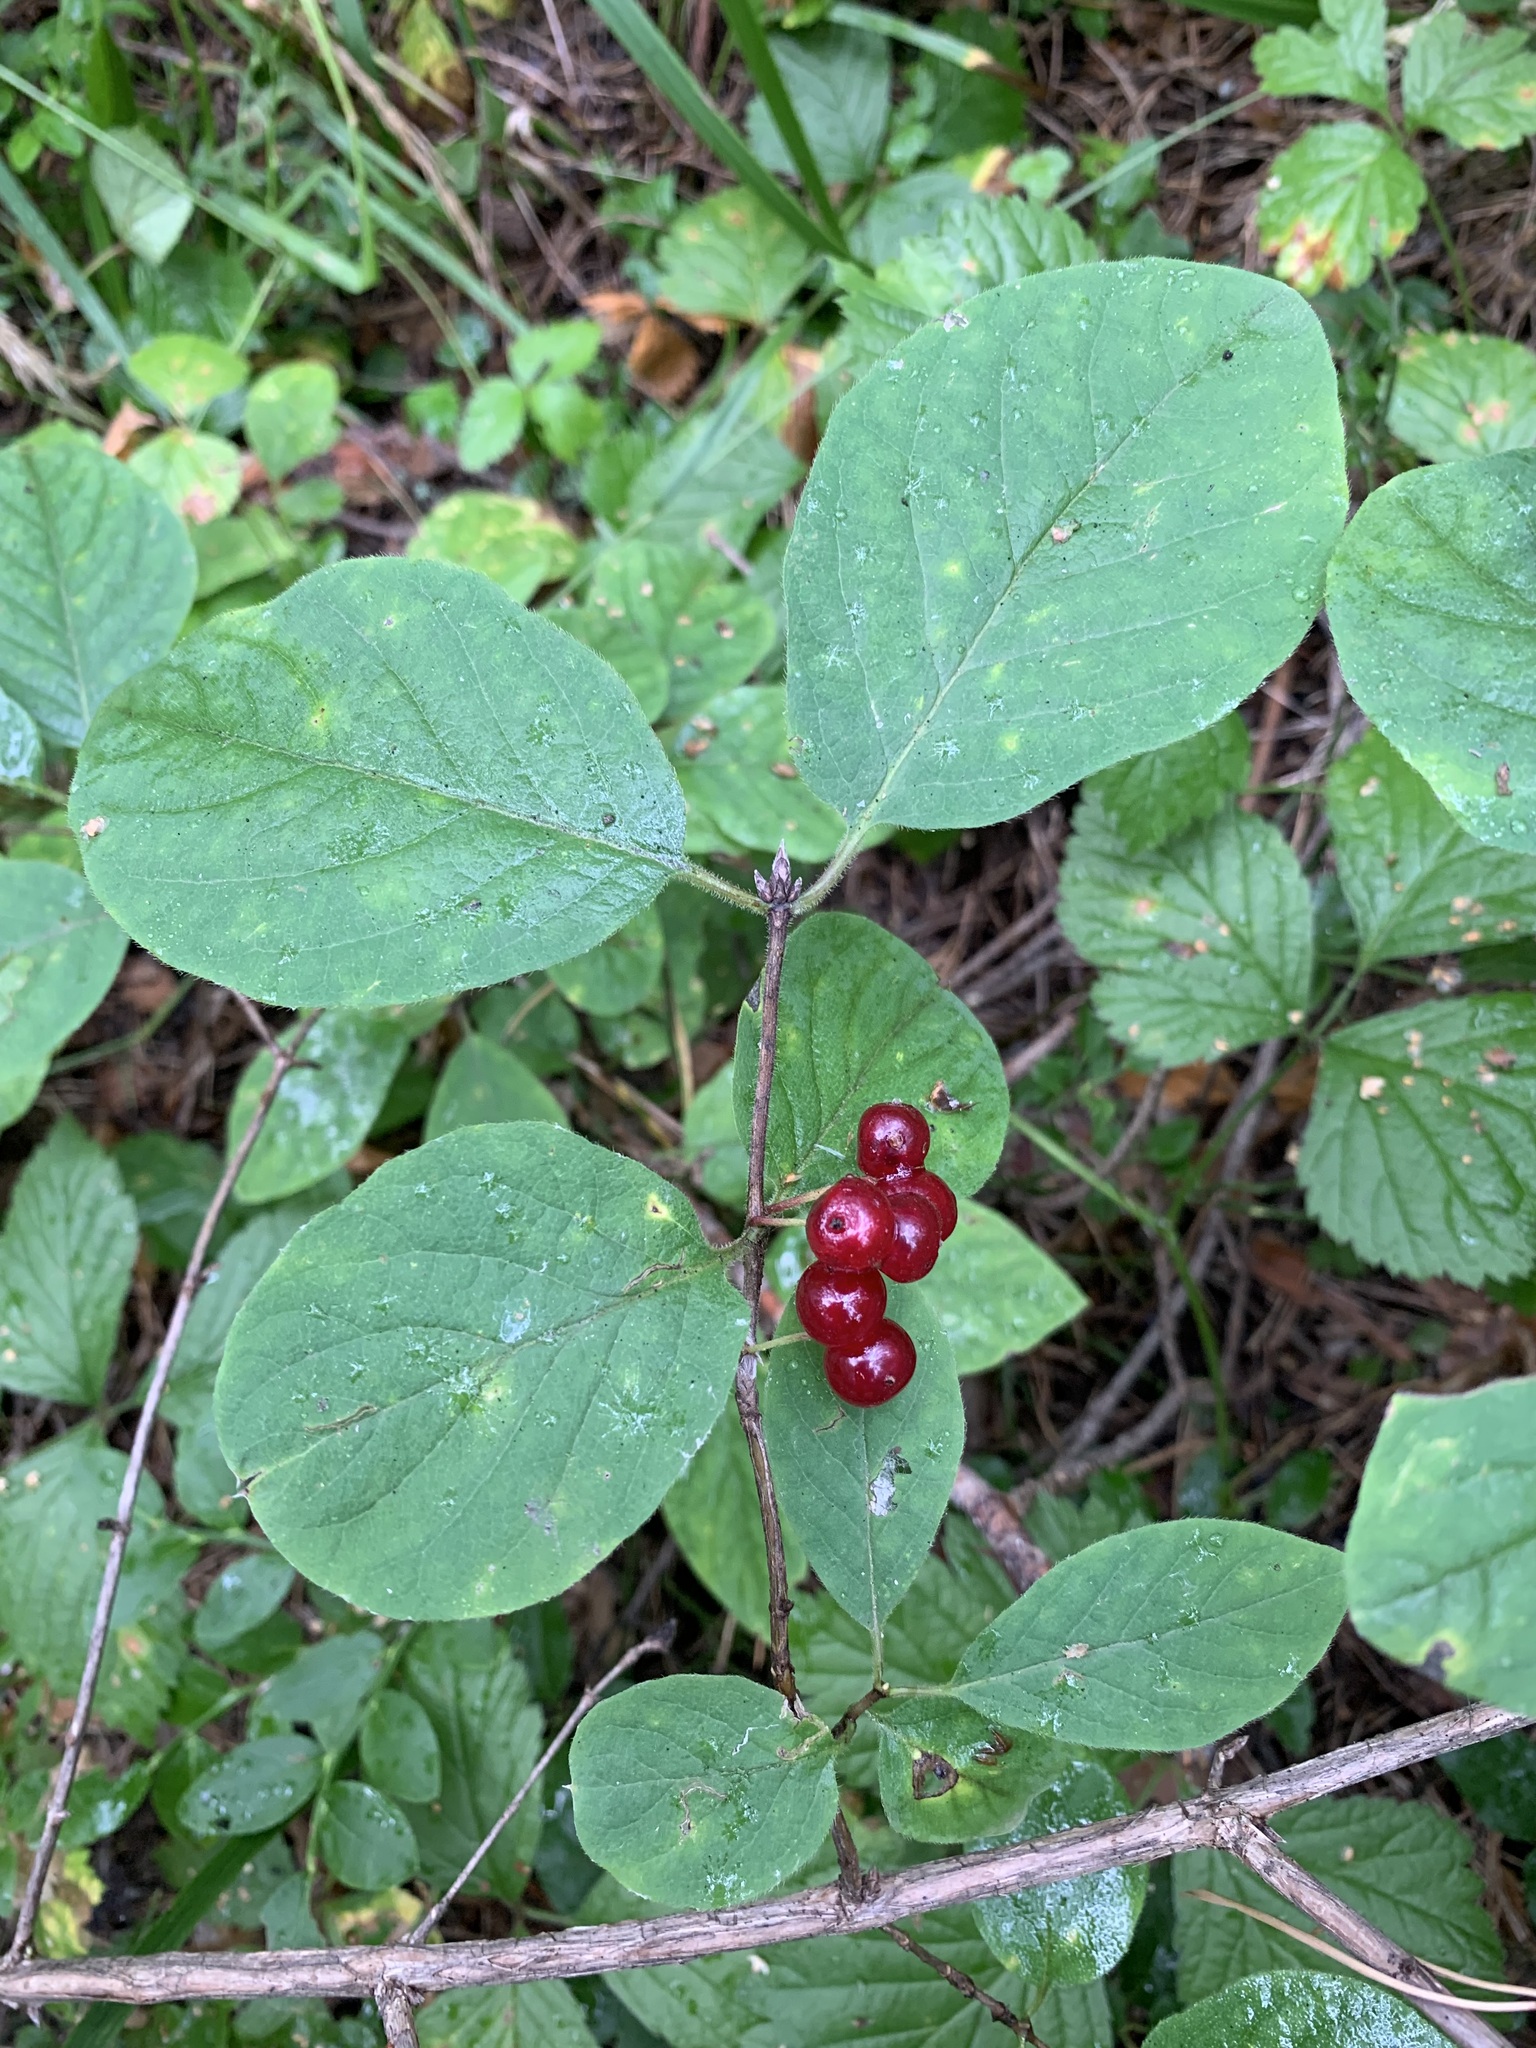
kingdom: Plantae
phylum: Tracheophyta
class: Magnoliopsida
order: Dipsacales
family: Caprifoliaceae
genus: Lonicera
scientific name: Lonicera xylosteum
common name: Fly honeysuckle
